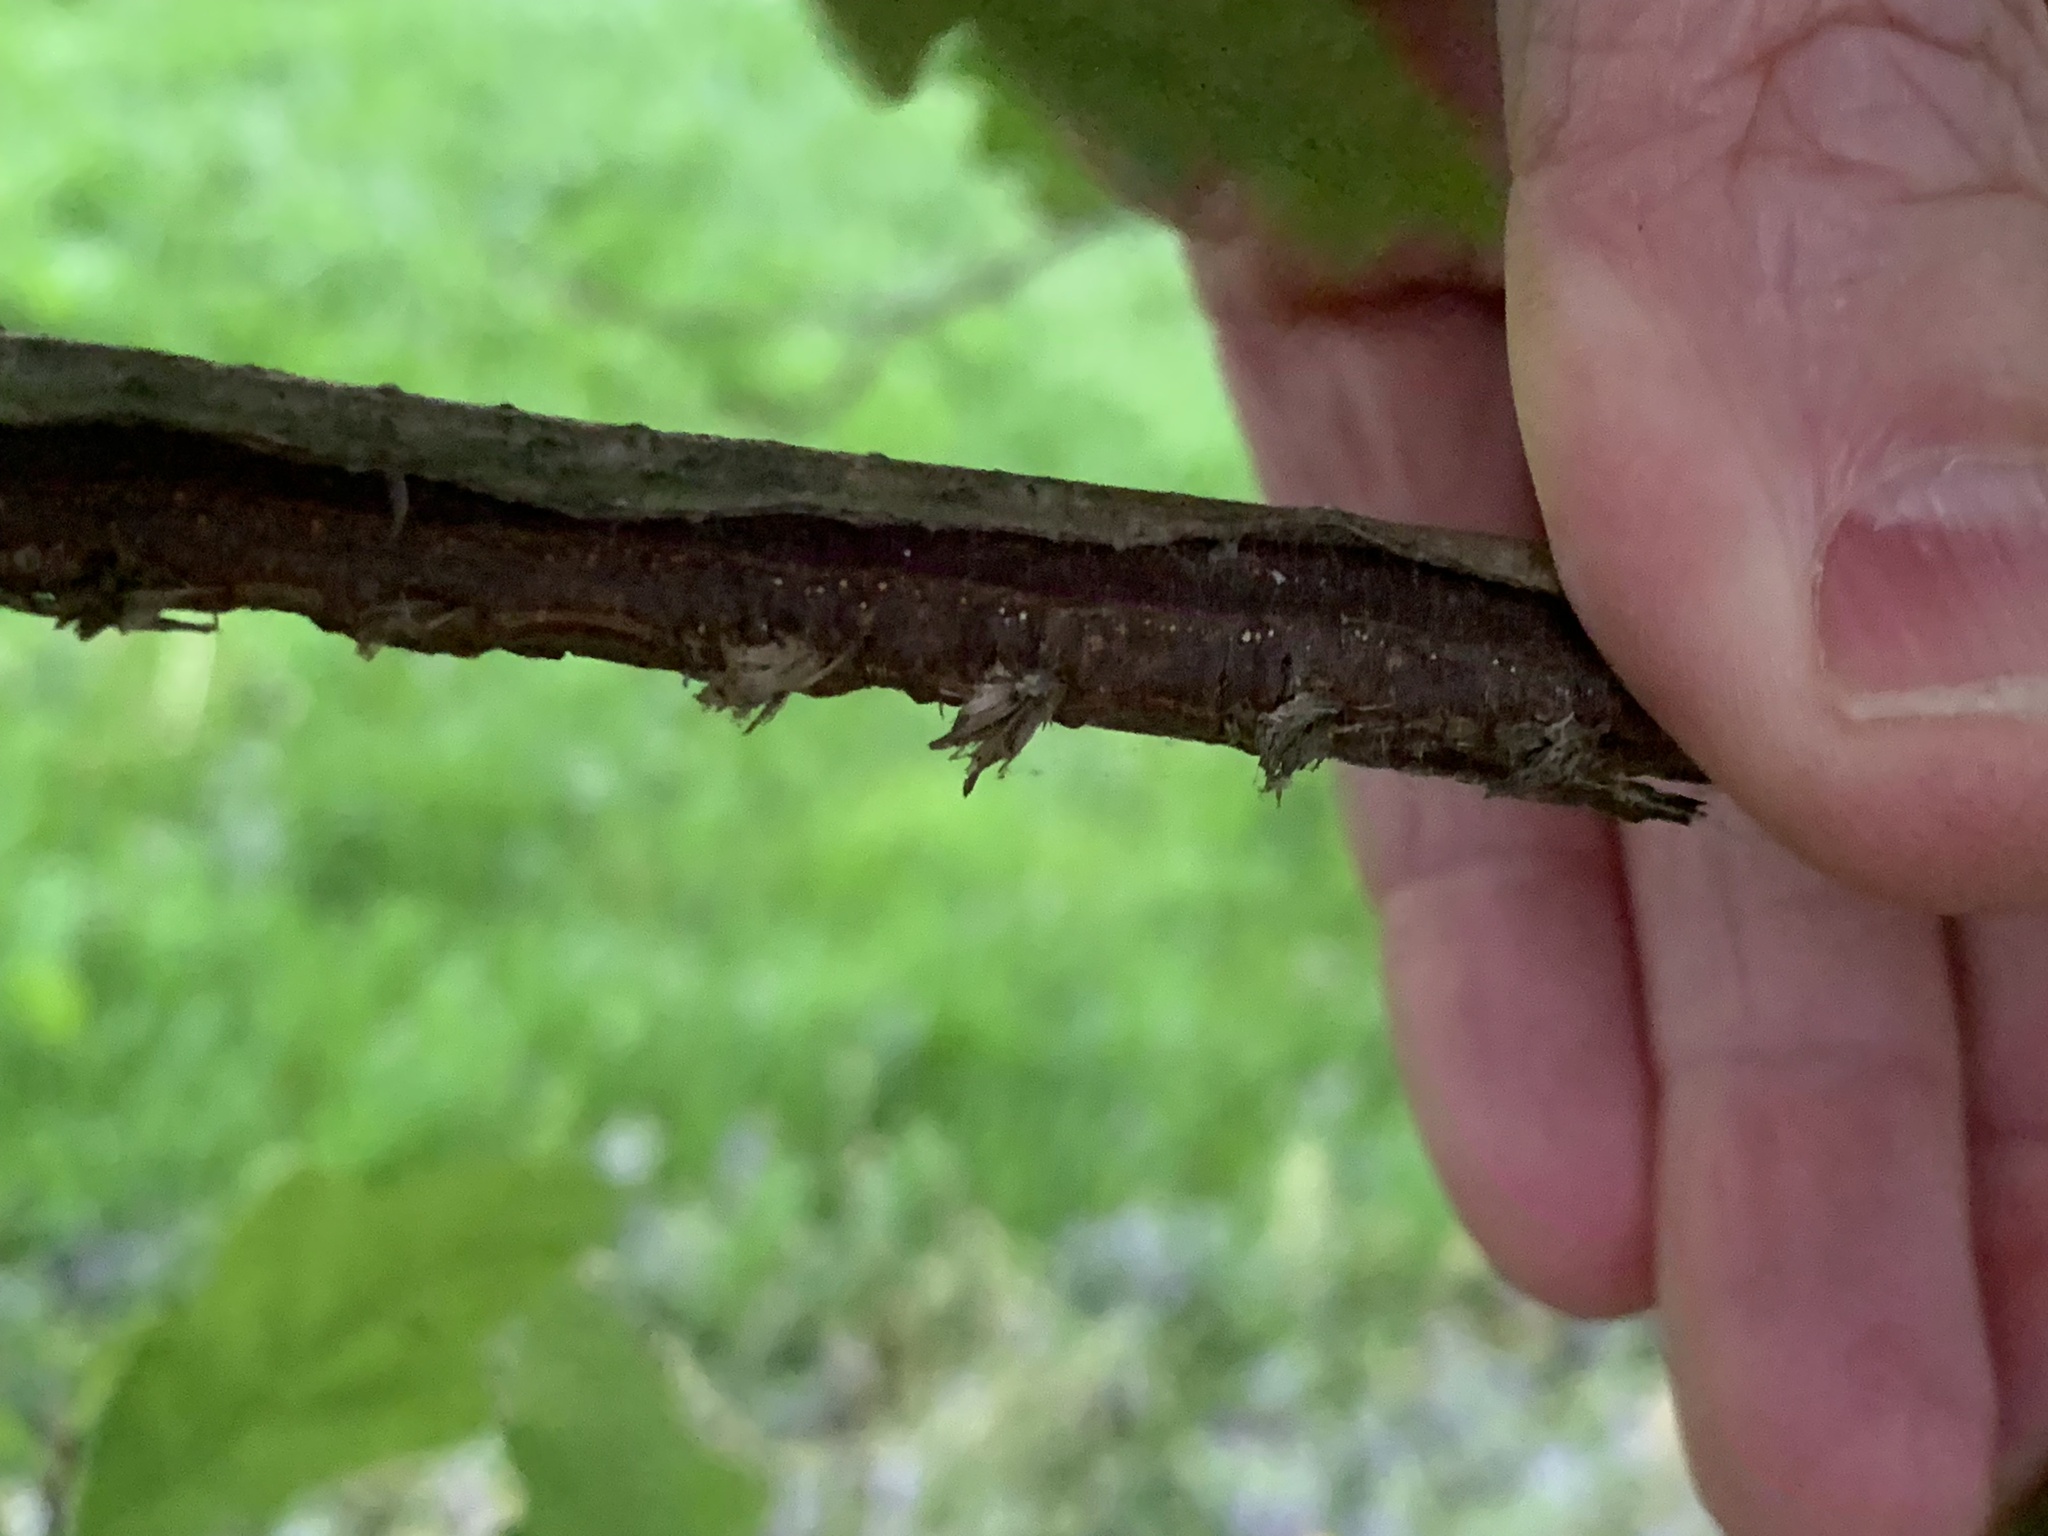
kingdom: Animalia
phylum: Arthropoda
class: Insecta
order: Hemiptera
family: Cicadidae
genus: Magicicada
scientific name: Magicicada
